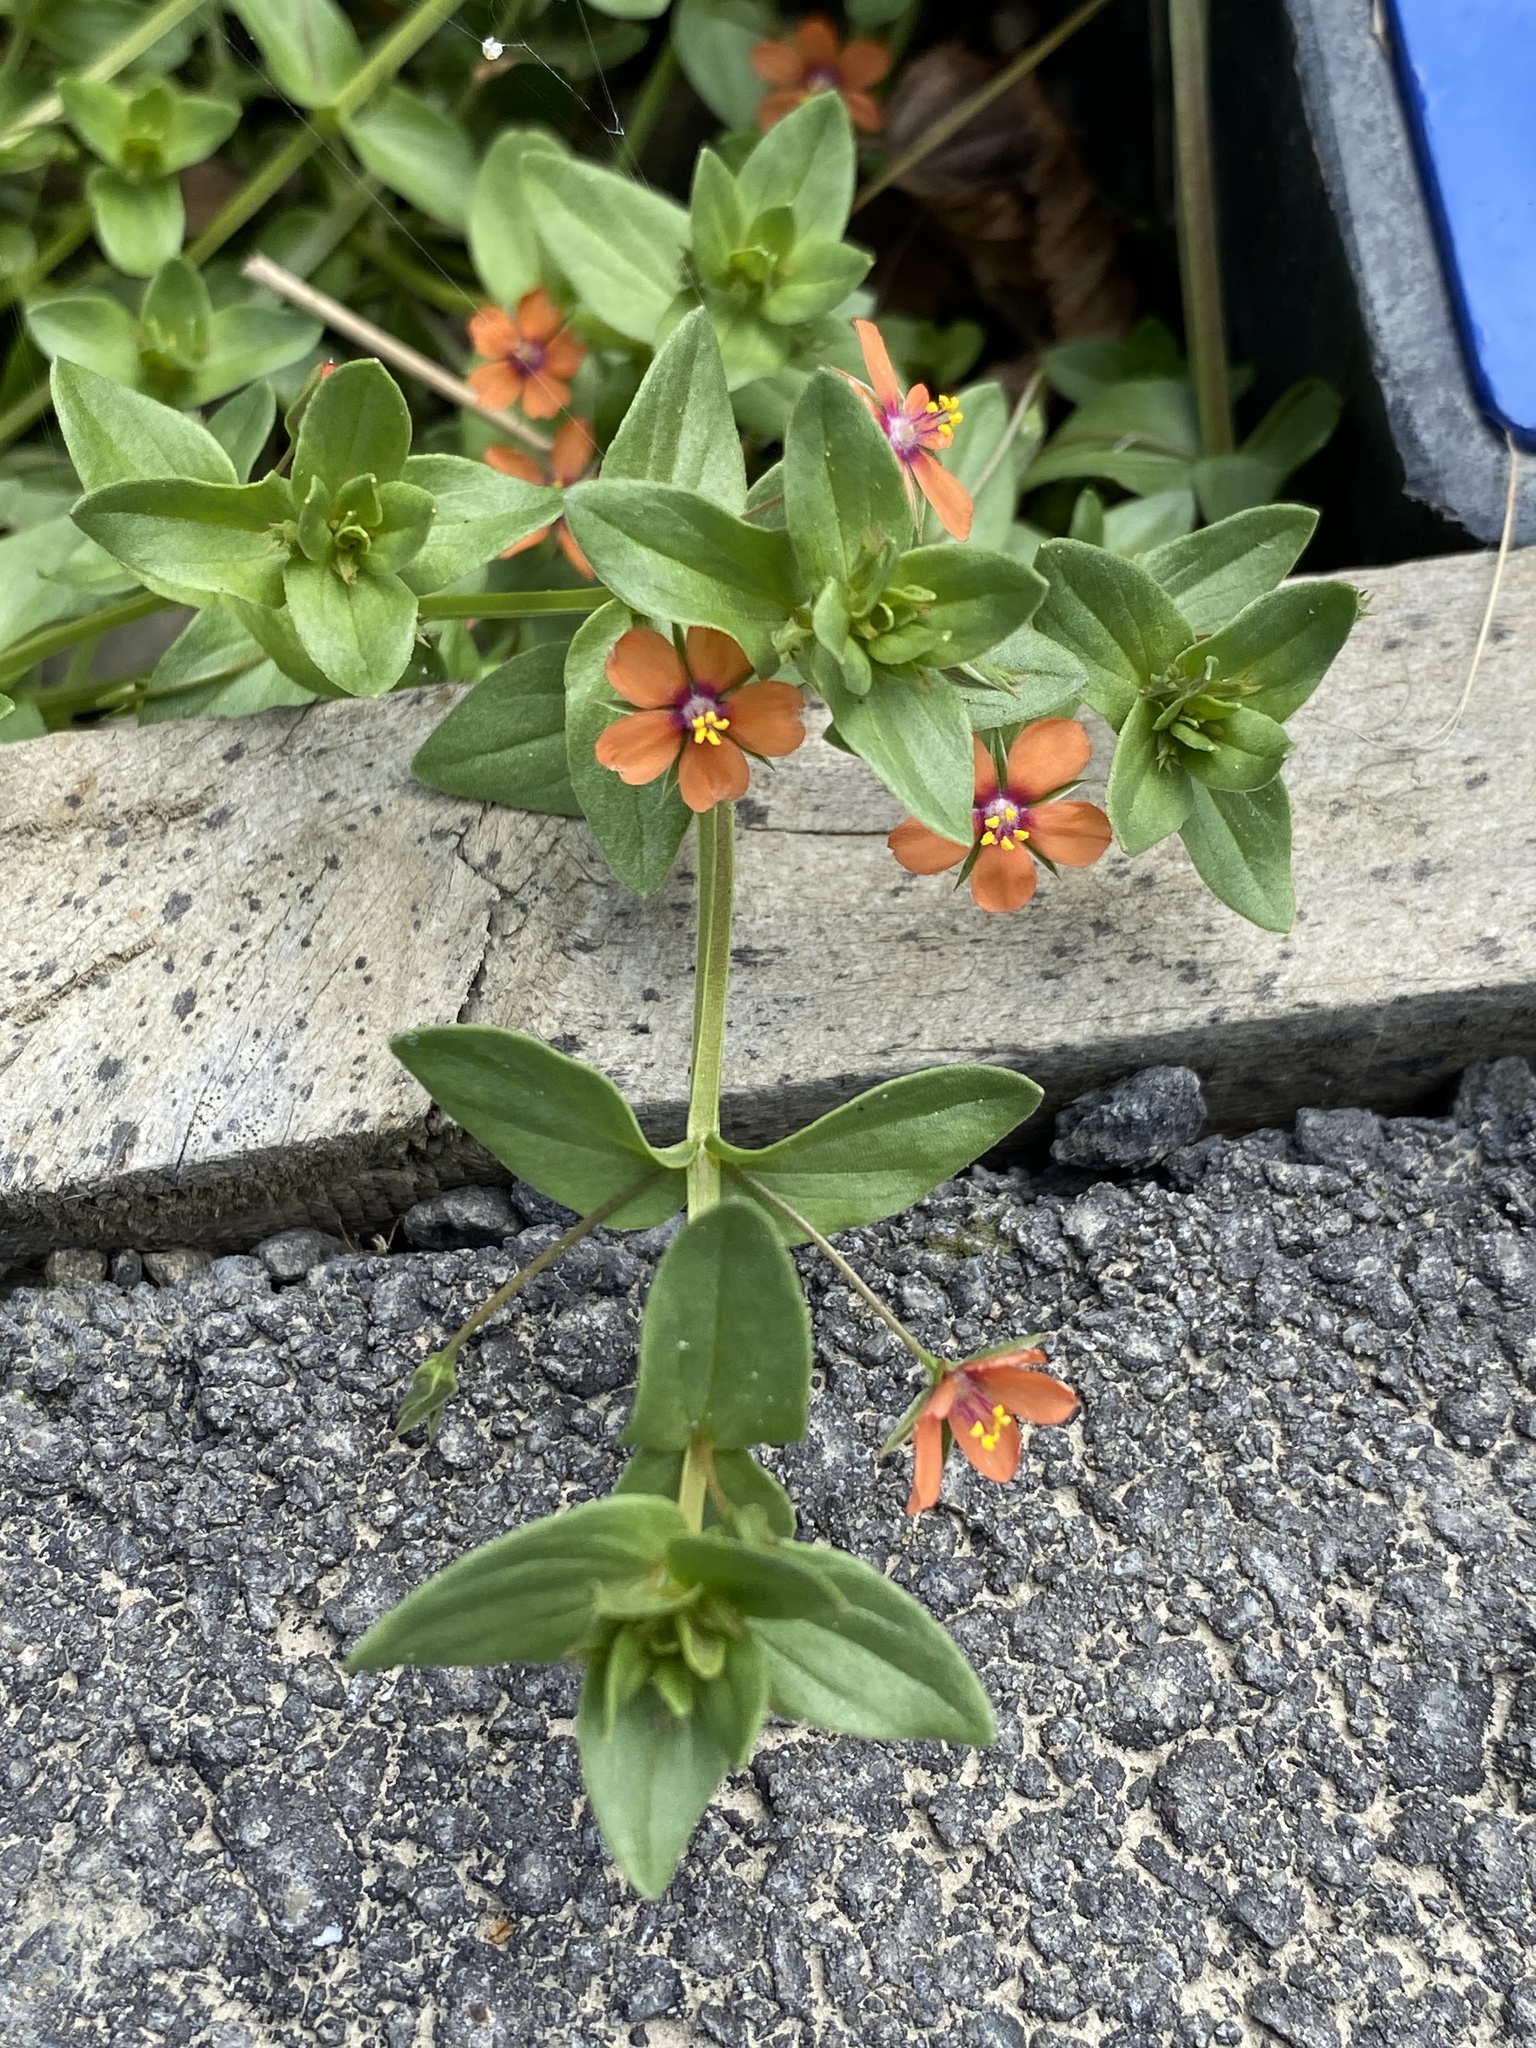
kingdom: Plantae
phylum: Tracheophyta
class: Magnoliopsida
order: Ericales
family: Primulaceae
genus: Lysimachia
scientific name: Lysimachia arvensis
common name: Scarlet pimpernel
